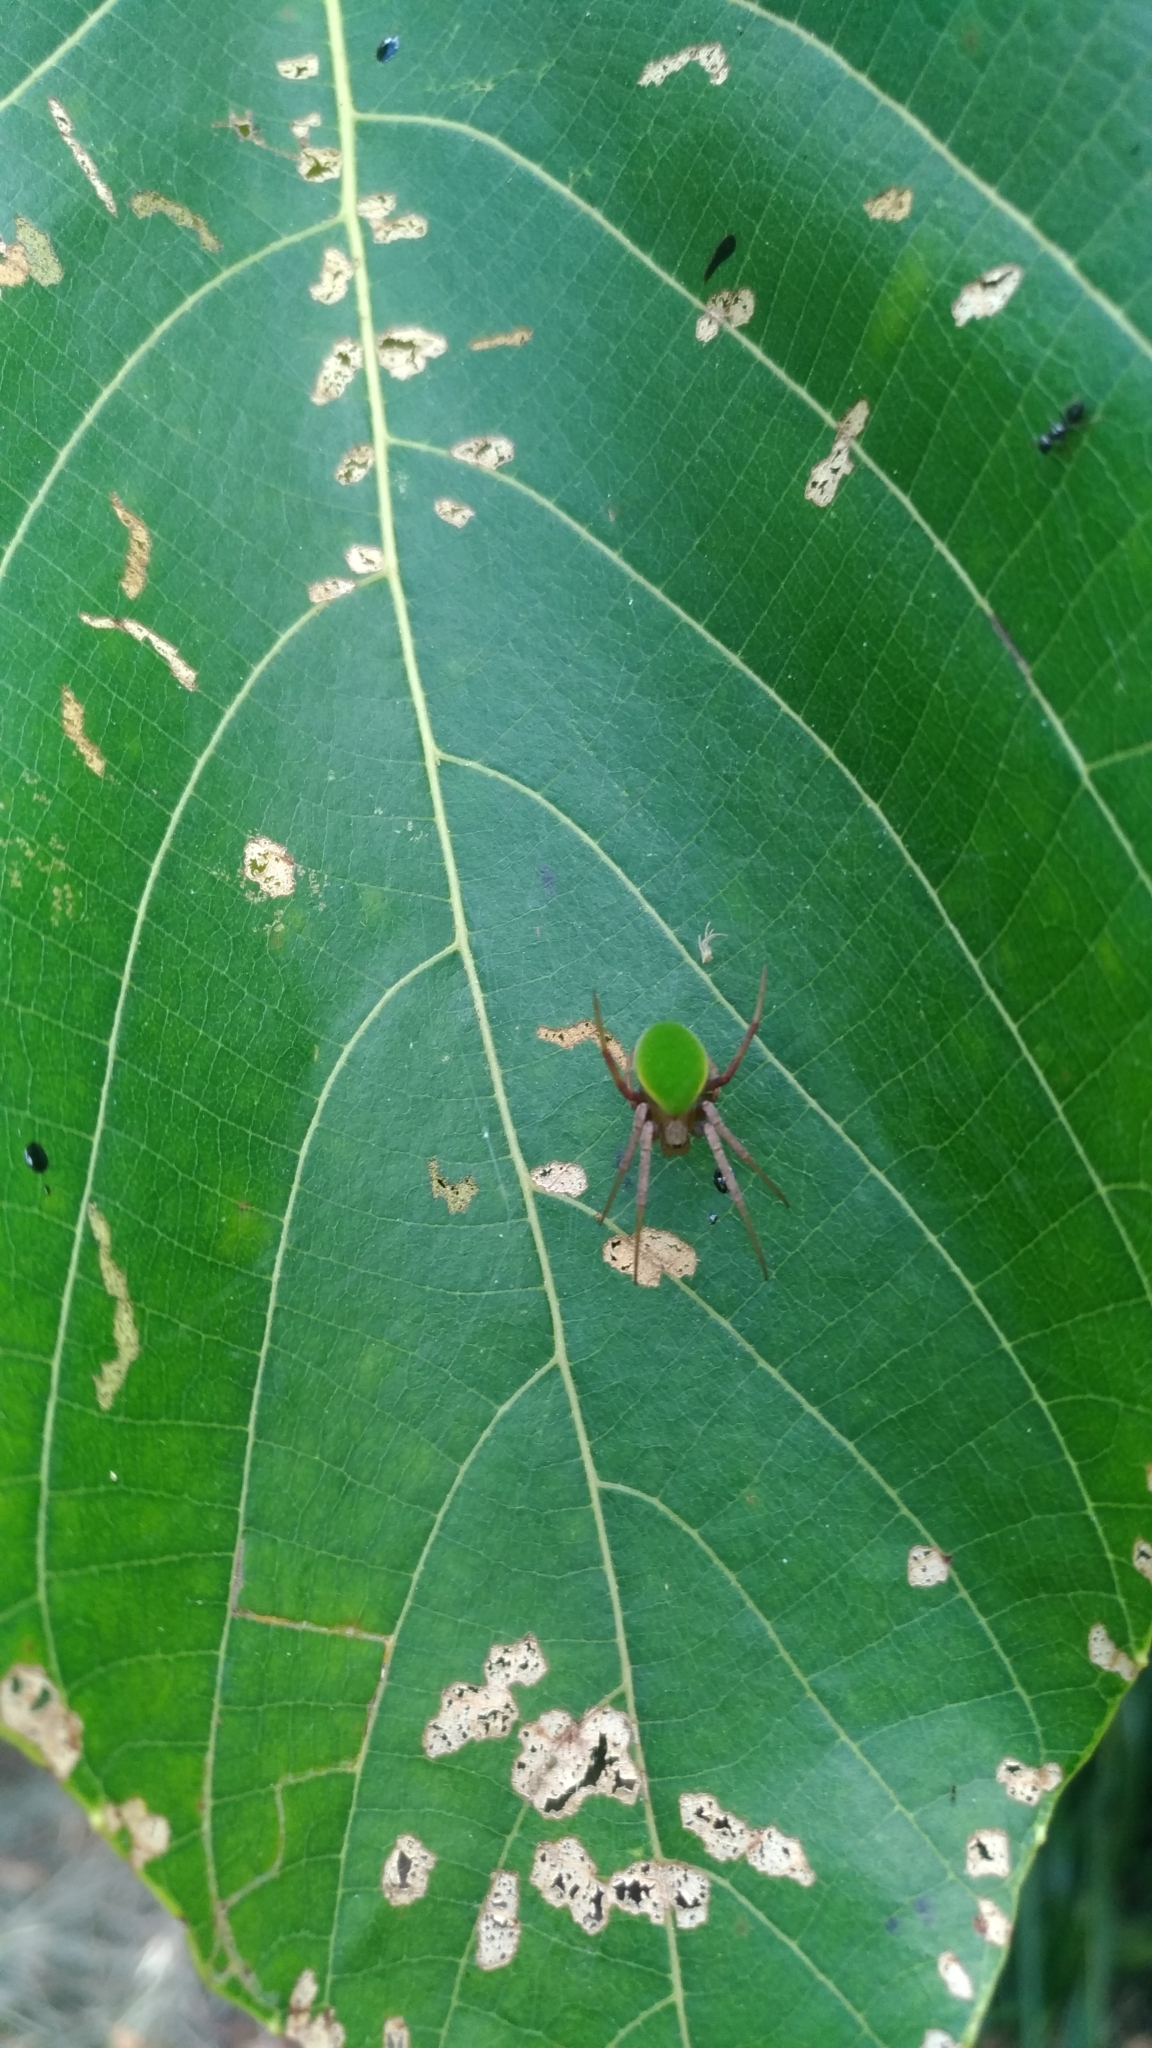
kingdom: Animalia
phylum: Arthropoda
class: Arachnida
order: Araneae
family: Araneidae
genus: Neoscona
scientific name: Neoscona scylloides
